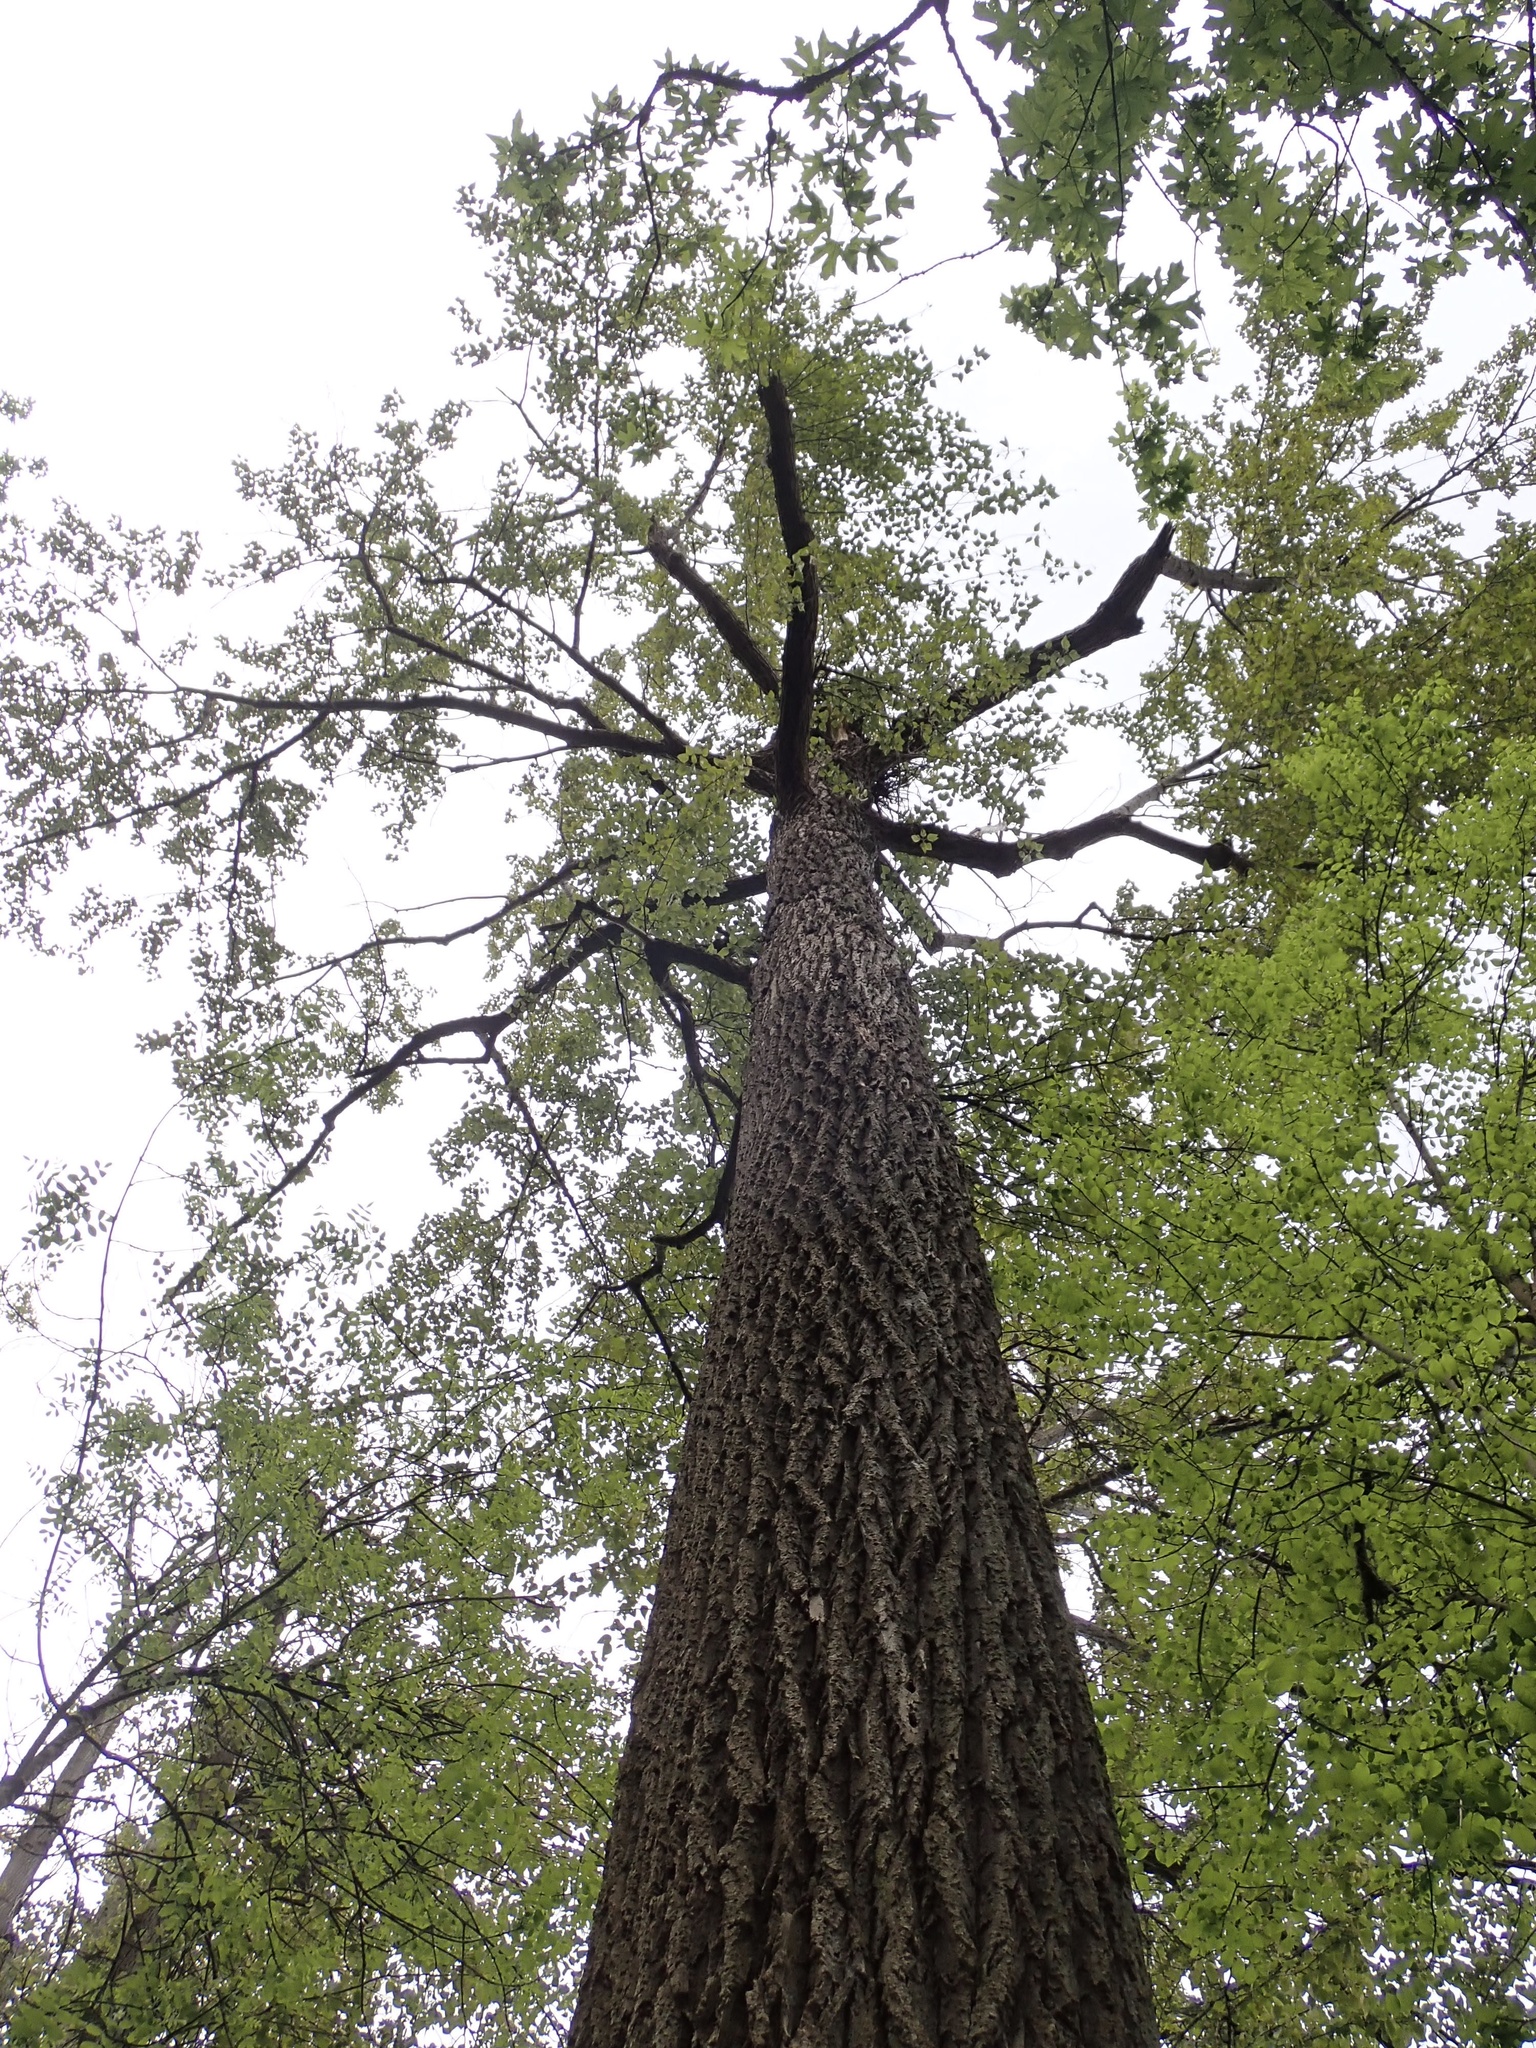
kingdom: Plantae
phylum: Tracheophyta
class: Magnoliopsida
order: Malpighiales
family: Salicaceae
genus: Populus
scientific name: Populus trichocarpa
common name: Black cottonwood
